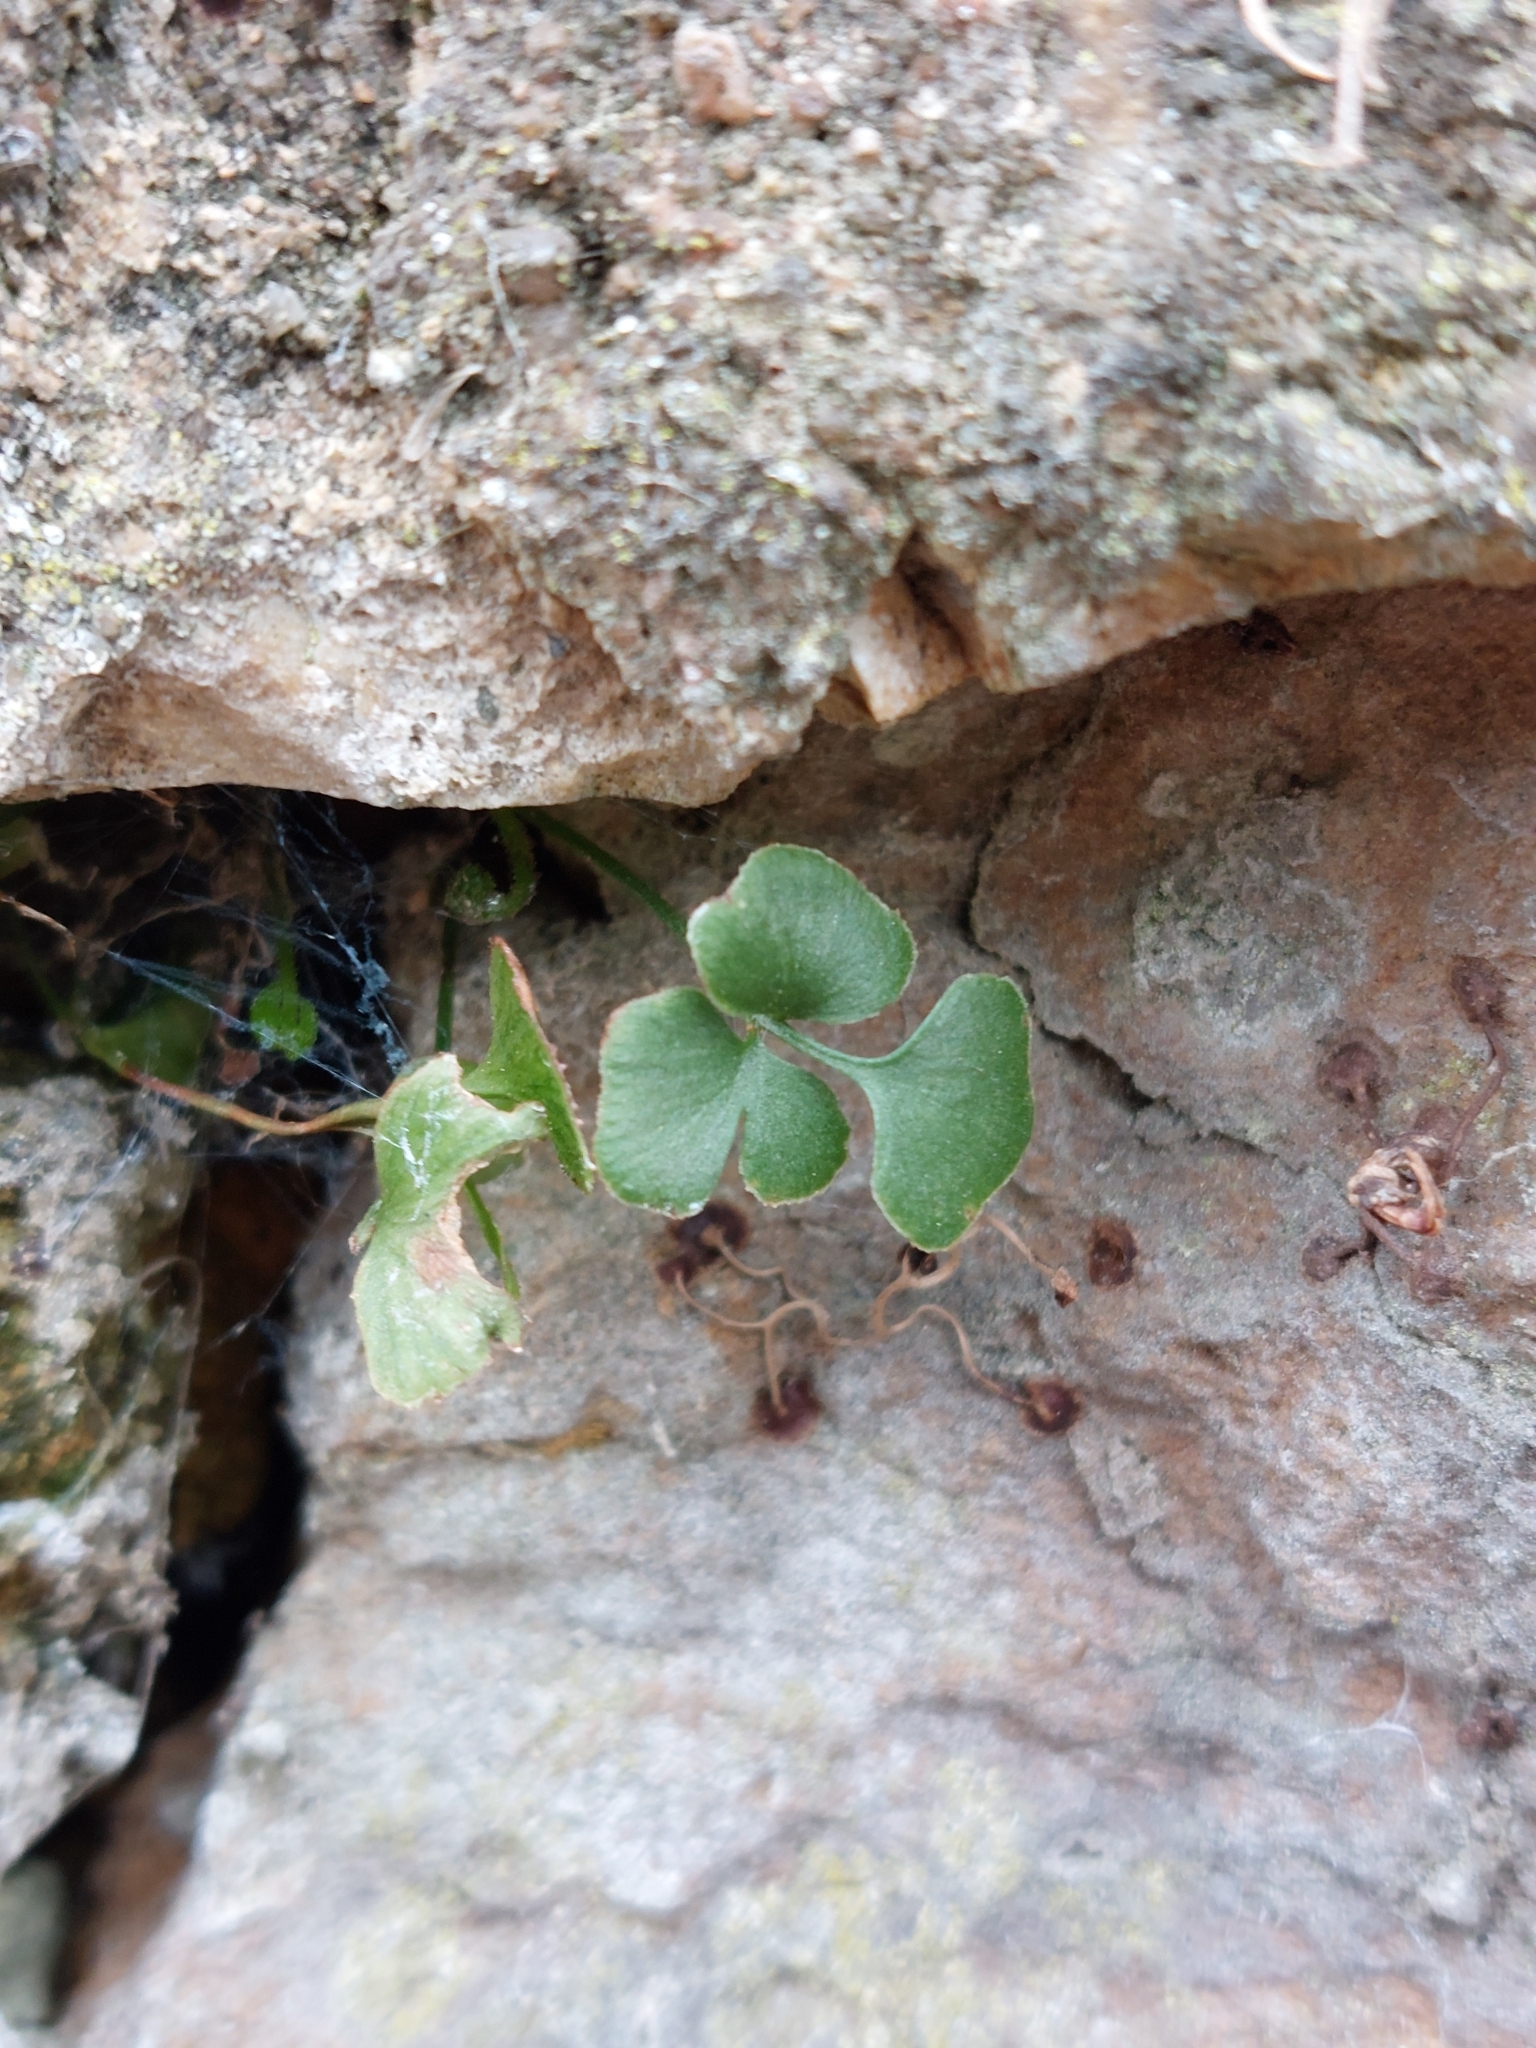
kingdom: Plantae
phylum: Tracheophyta
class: Polypodiopsida
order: Polypodiales
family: Aspleniaceae
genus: Asplenium
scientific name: Asplenium ruta-muraria
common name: Wall-rue
